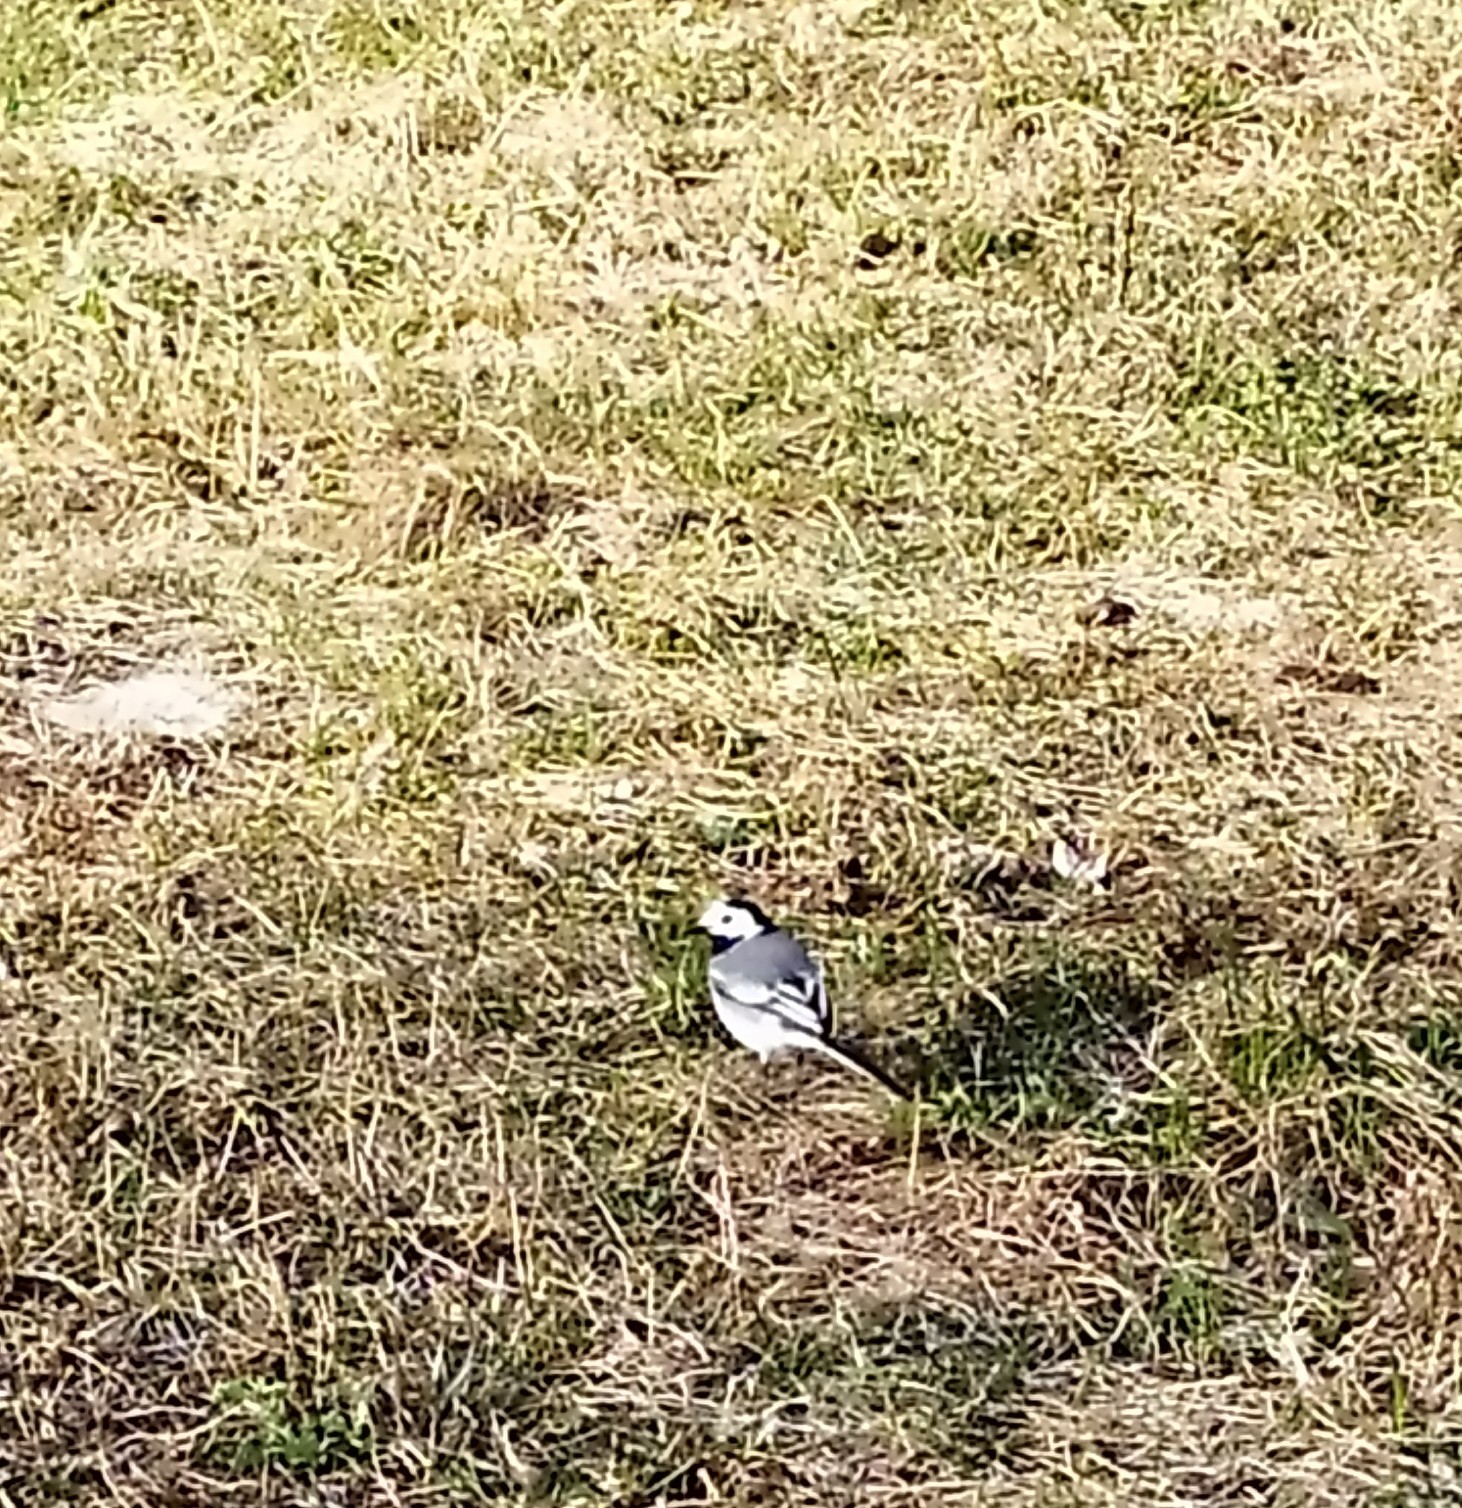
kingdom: Animalia
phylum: Chordata
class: Aves
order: Passeriformes
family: Motacillidae
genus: Motacilla
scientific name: Motacilla alba
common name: White wagtail
